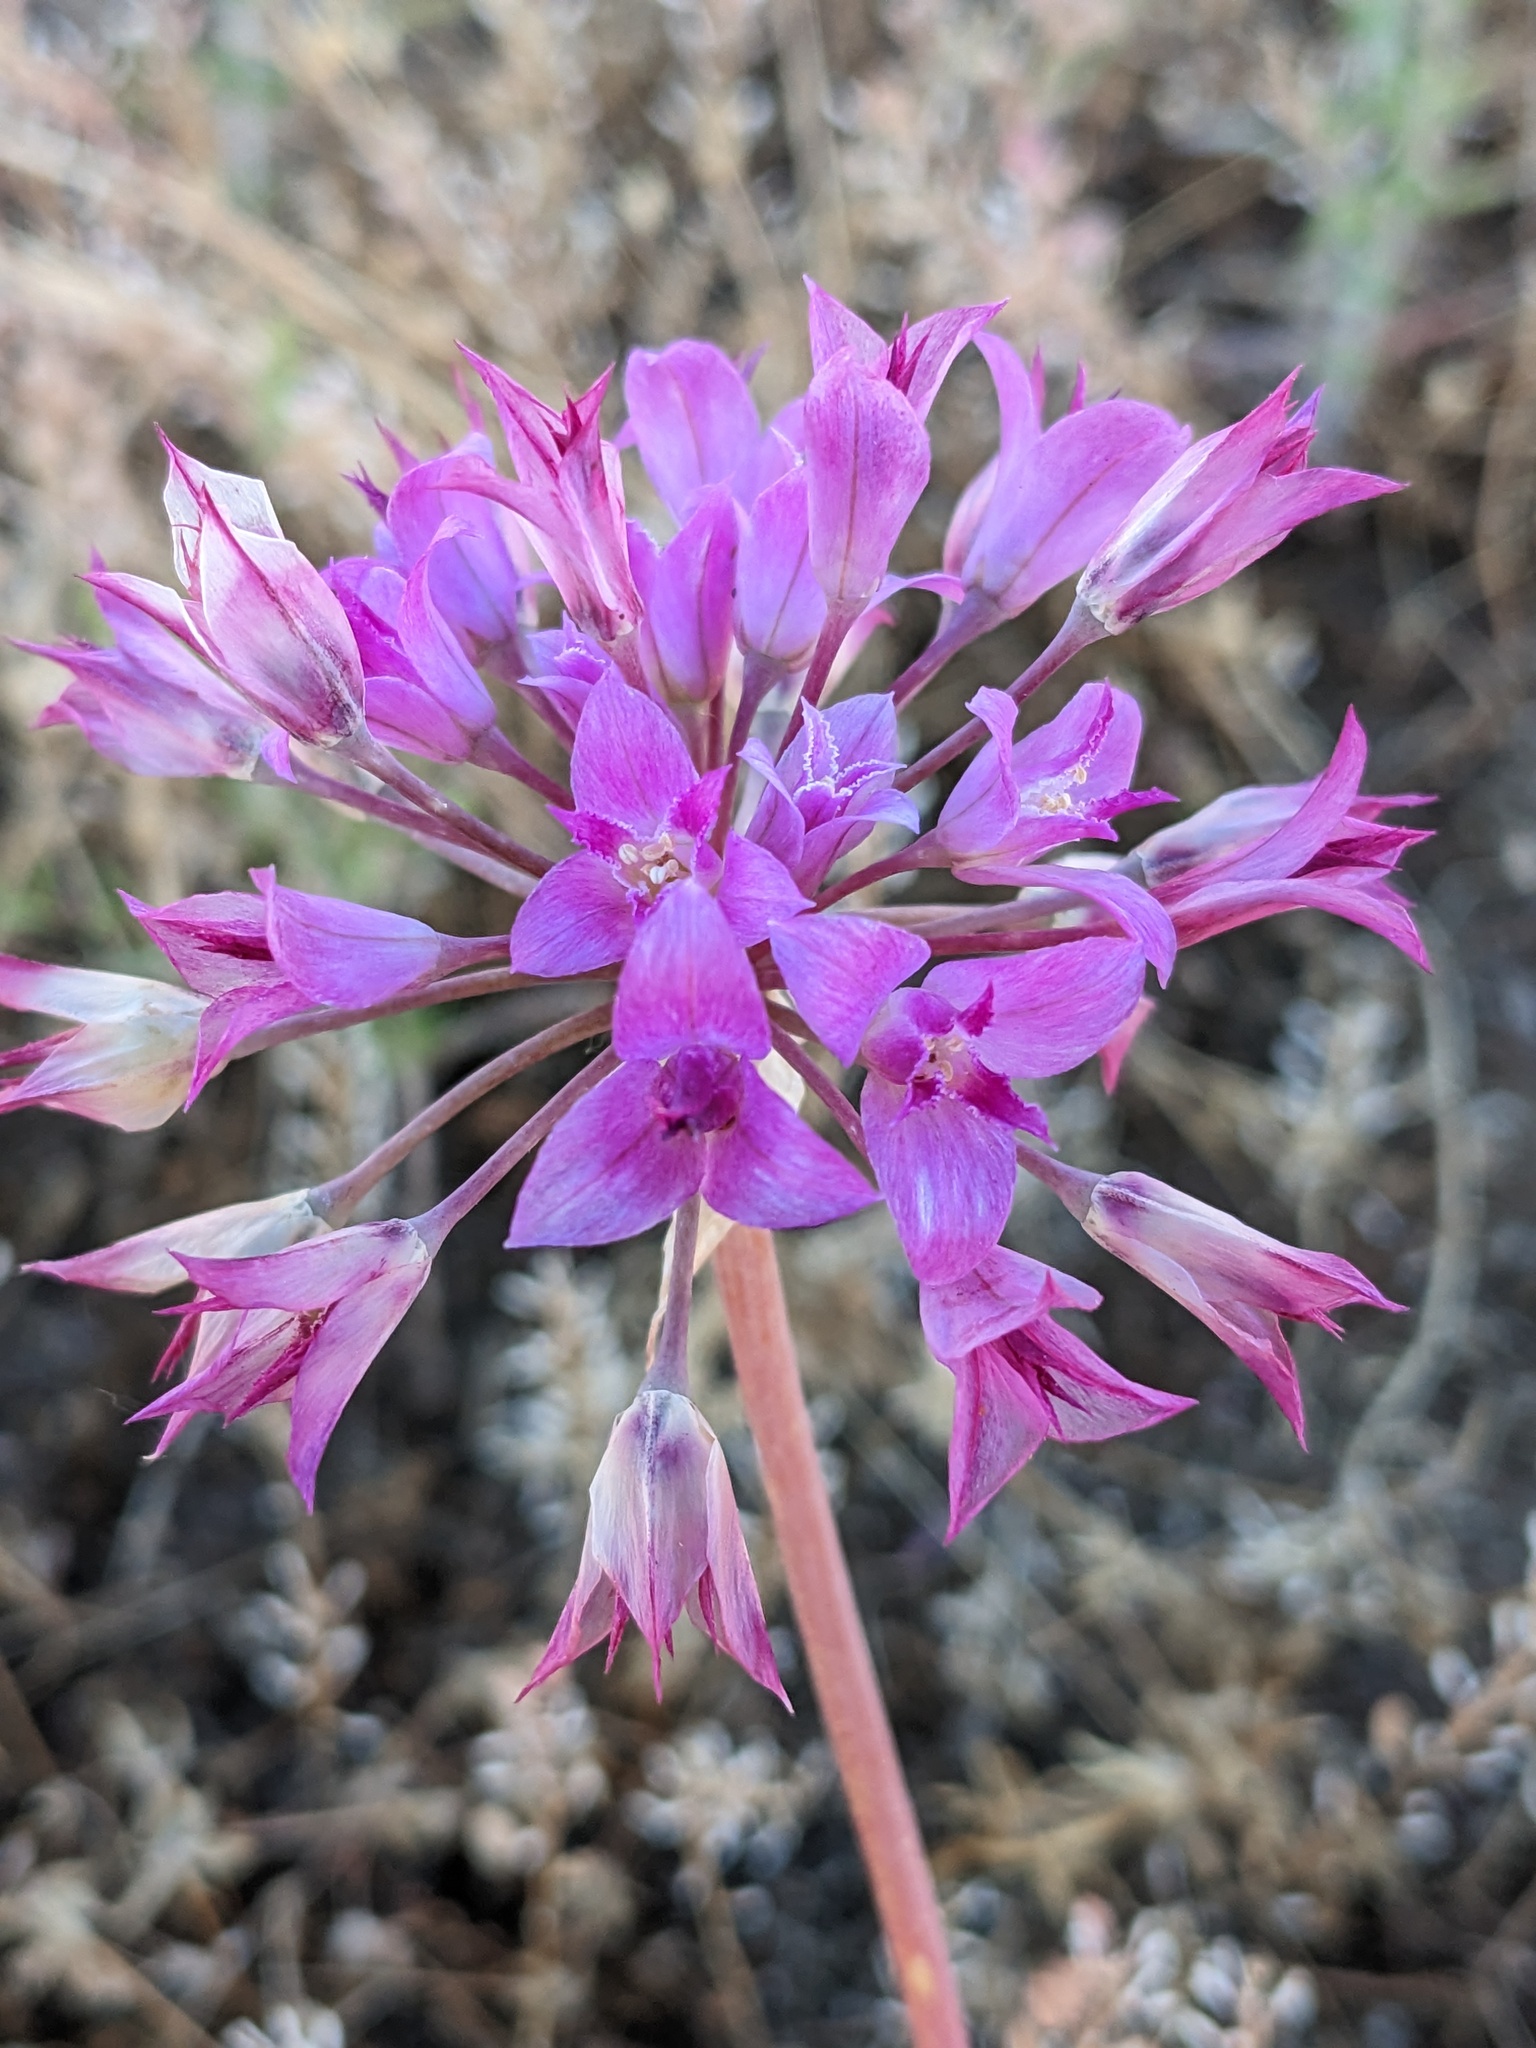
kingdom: Plantae
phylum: Tracheophyta
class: Liliopsida
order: Asparagales
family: Amaryllidaceae
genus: Allium
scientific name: Allium crispum
